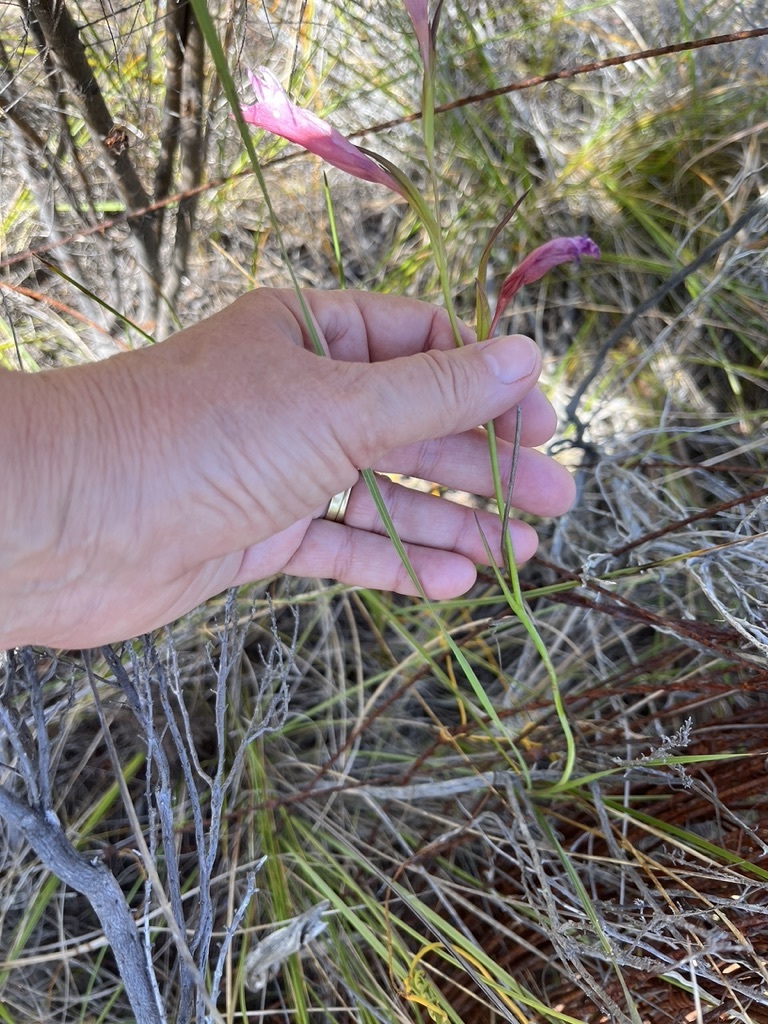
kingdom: Plantae
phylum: Tracheophyta
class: Liliopsida
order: Asparagales
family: Iridaceae
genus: Gladiolus
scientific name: Gladiolus carneus
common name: Painted-lady
